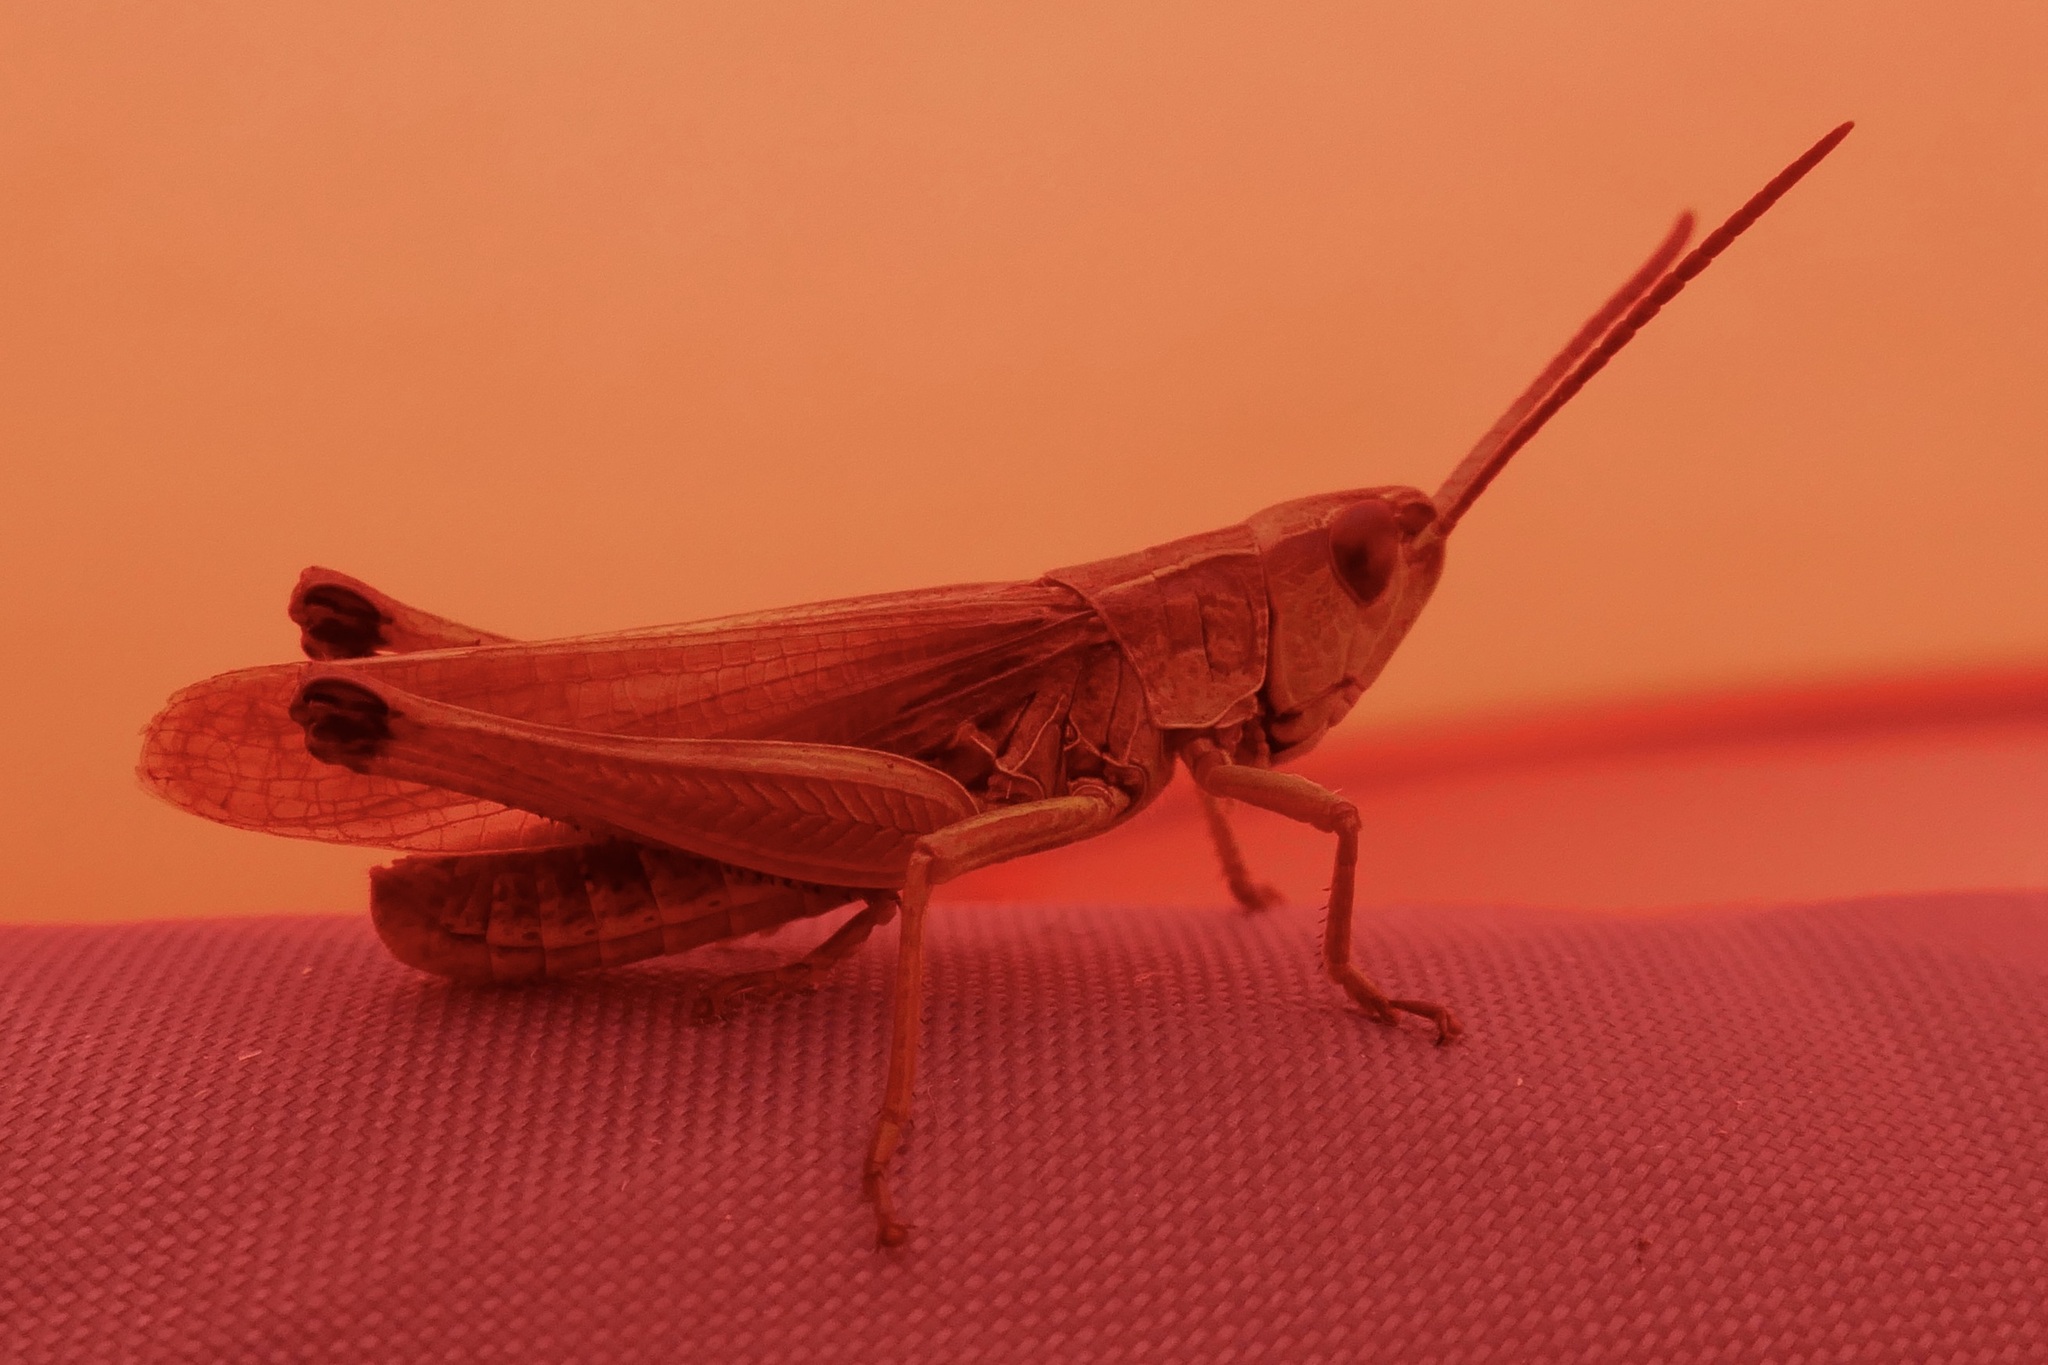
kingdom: Animalia
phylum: Arthropoda
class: Insecta
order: Orthoptera
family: Acrididae
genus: Pseudochorthippus
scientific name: Pseudochorthippus parallelus
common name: Meadow grasshopper
